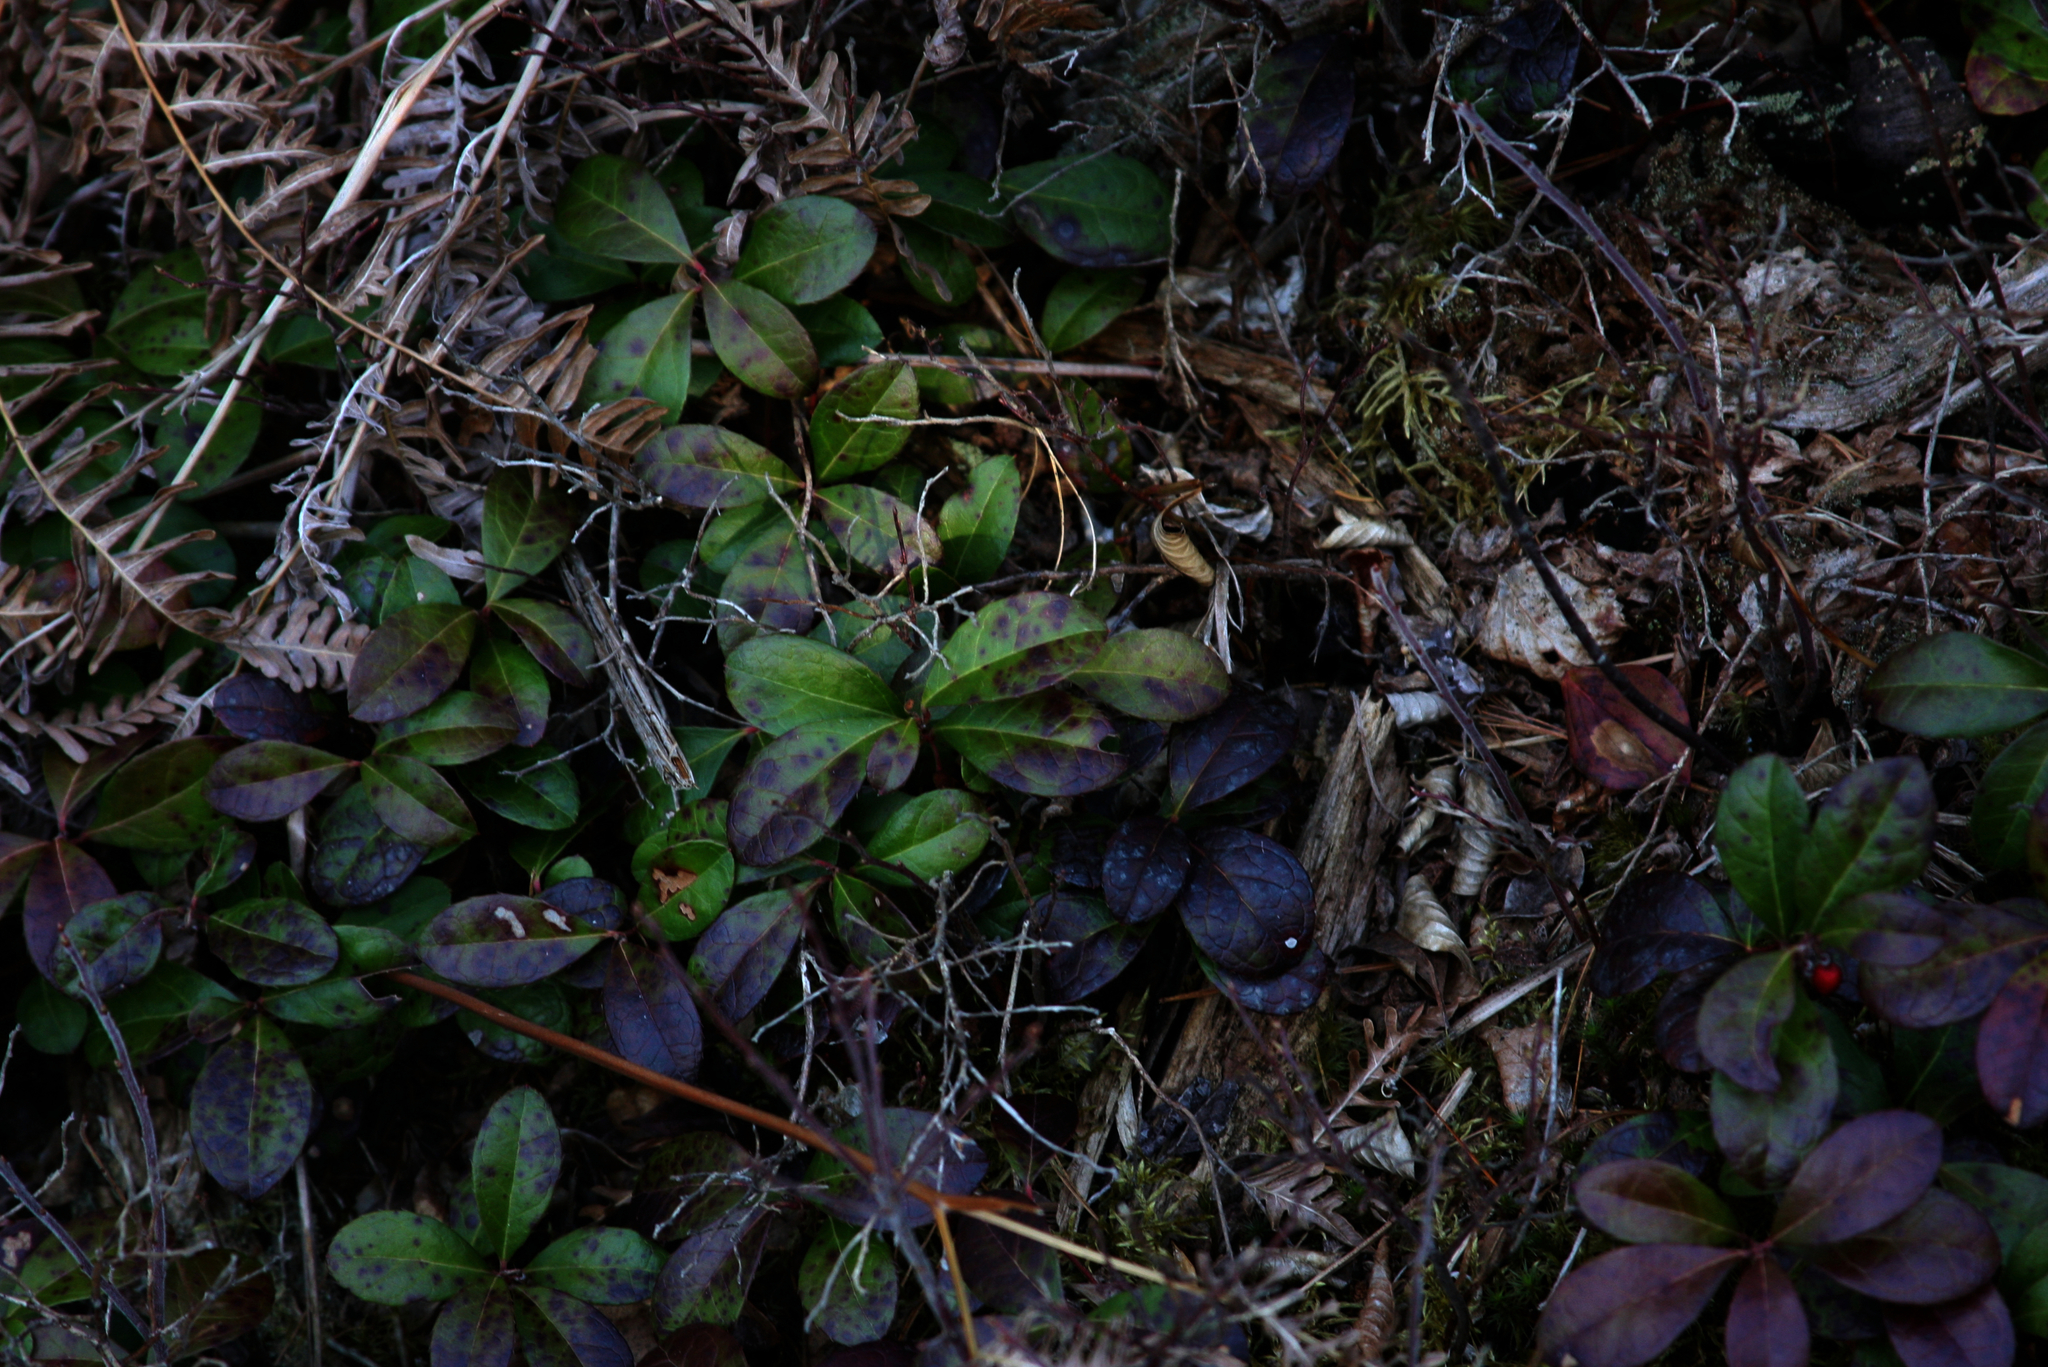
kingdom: Plantae
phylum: Tracheophyta
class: Magnoliopsida
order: Ericales
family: Ericaceae
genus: Gaultheria
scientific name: Gaultheria procumbens
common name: Checkerberry
